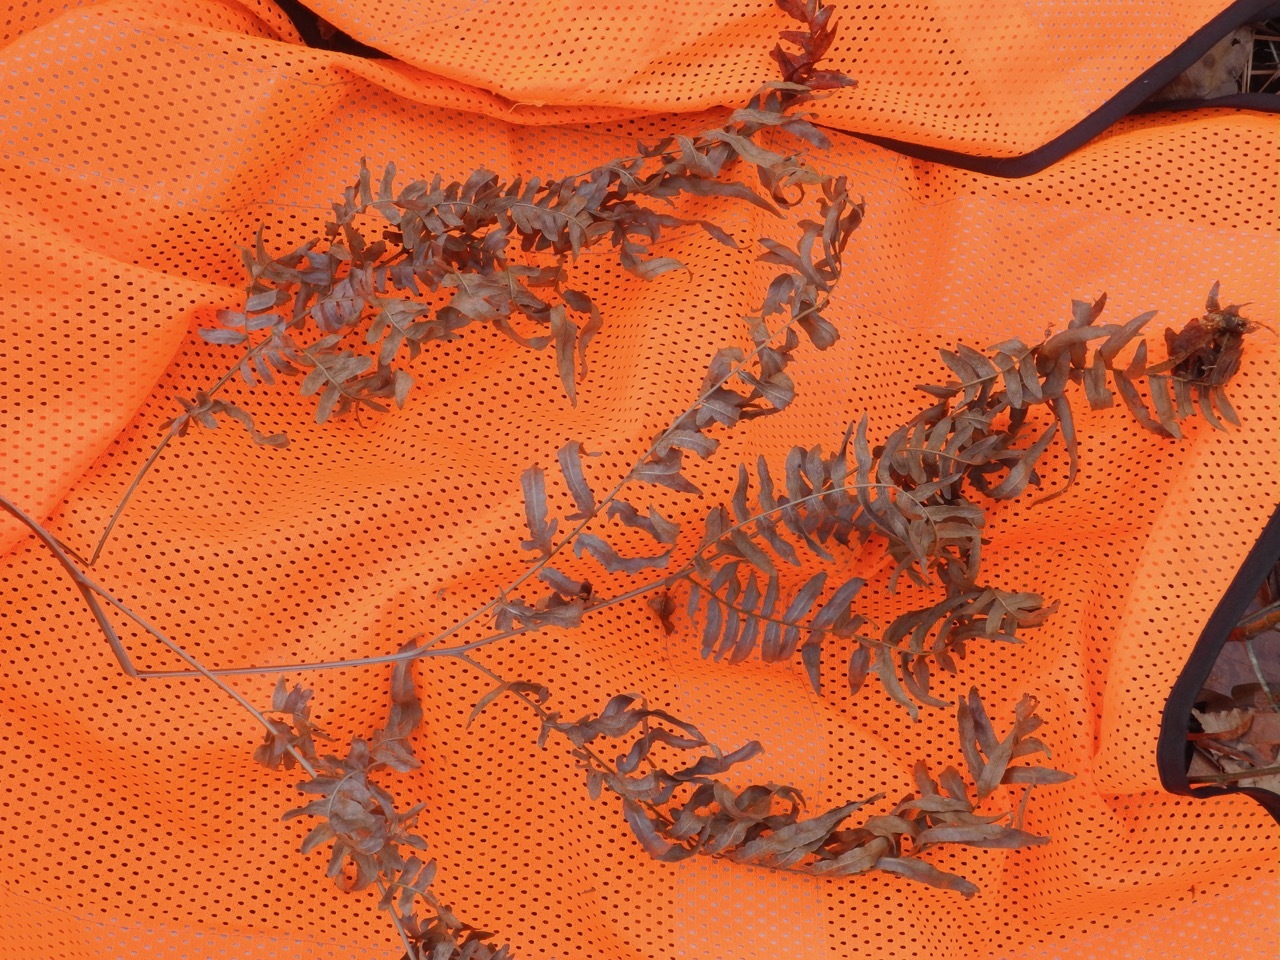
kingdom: Plantae
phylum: Tracheophyta
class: Polypodiopsida
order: Polypodiales
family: Dennstaedtiaceae
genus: Pteridium
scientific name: Pteridium
